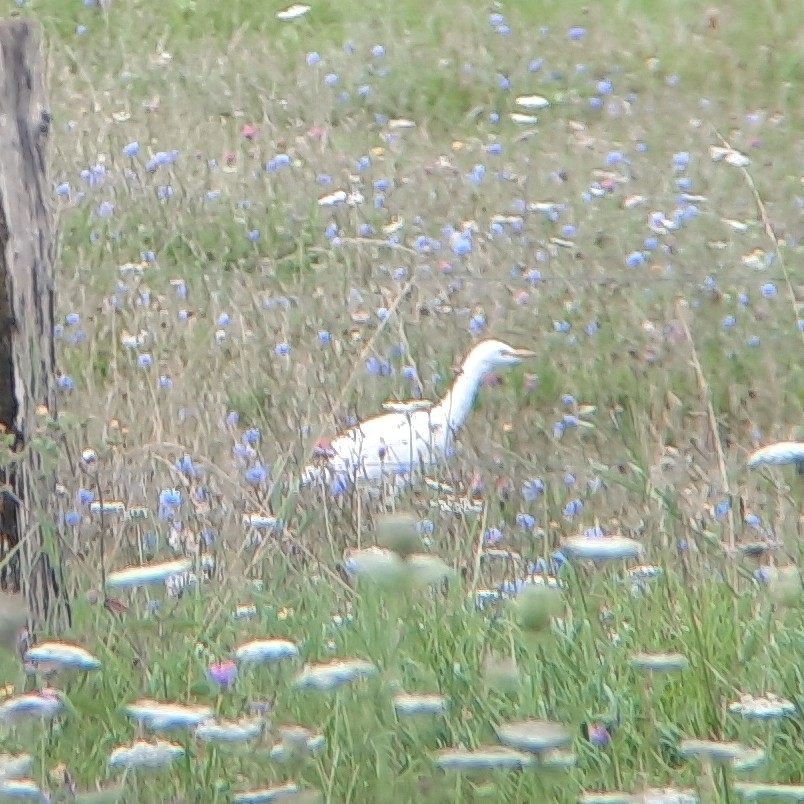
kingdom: Animalia
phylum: Chordata
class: Aves
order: Pelecaniformes
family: Ardeidae
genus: Bubulcus
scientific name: Bubulcus ibis
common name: Cattle egret
